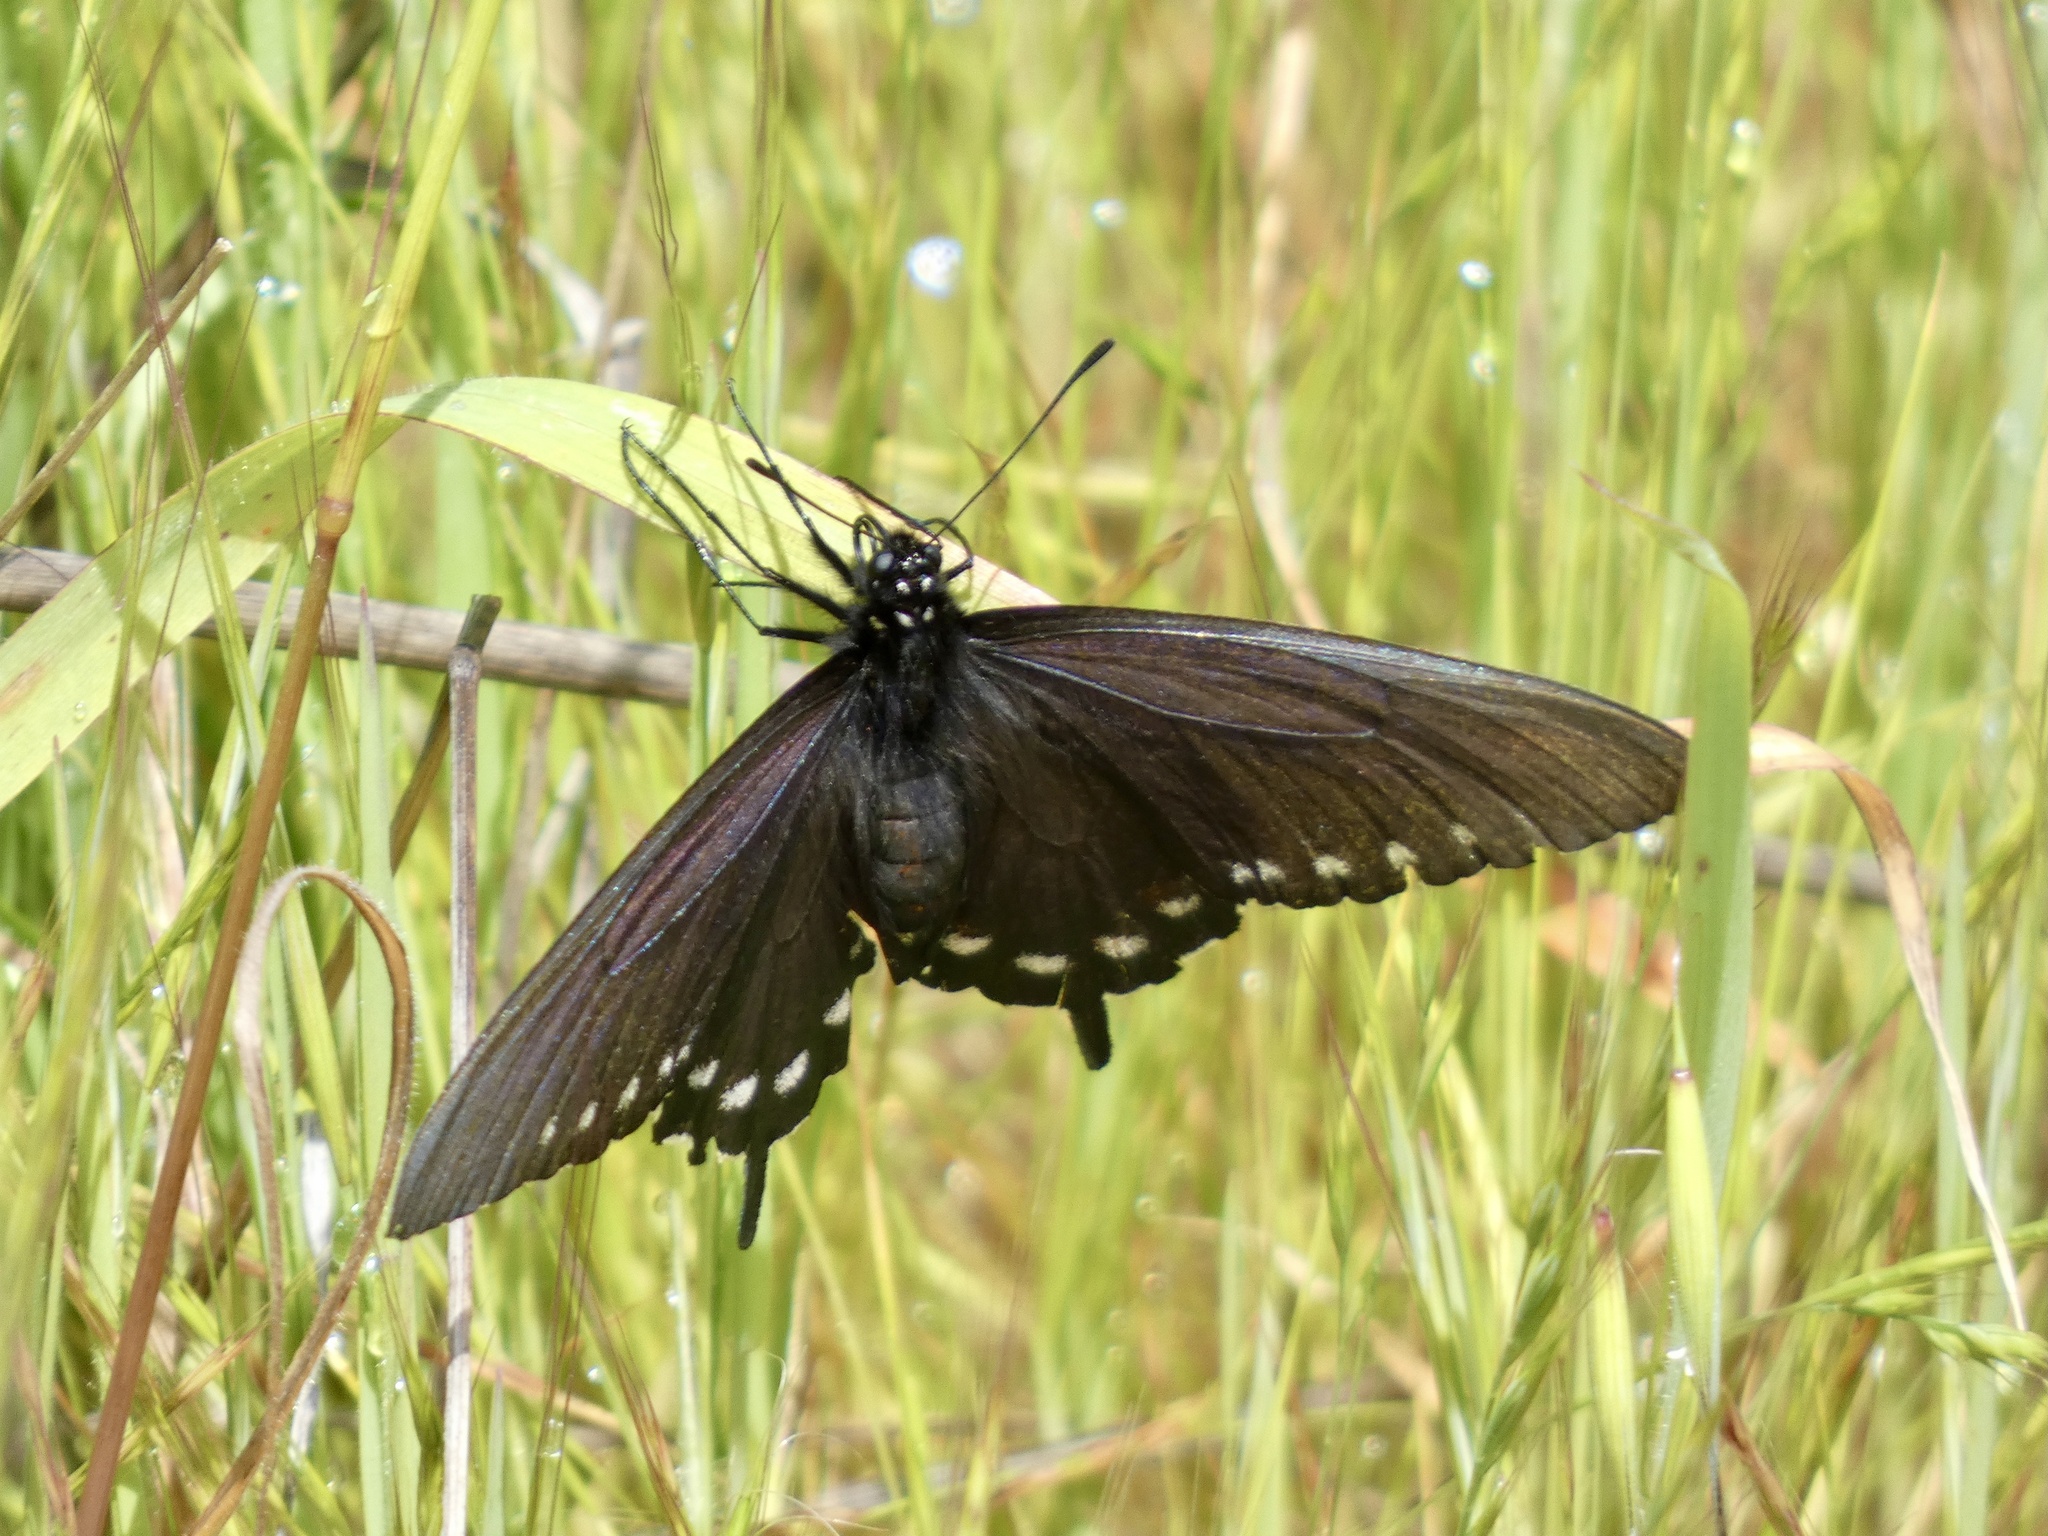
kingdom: Animalia
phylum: Arthropoda
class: Insecta
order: Lepidoptera
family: Papilionidae
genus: Battus
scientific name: Battus philenor
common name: Pipevine swallowtail
